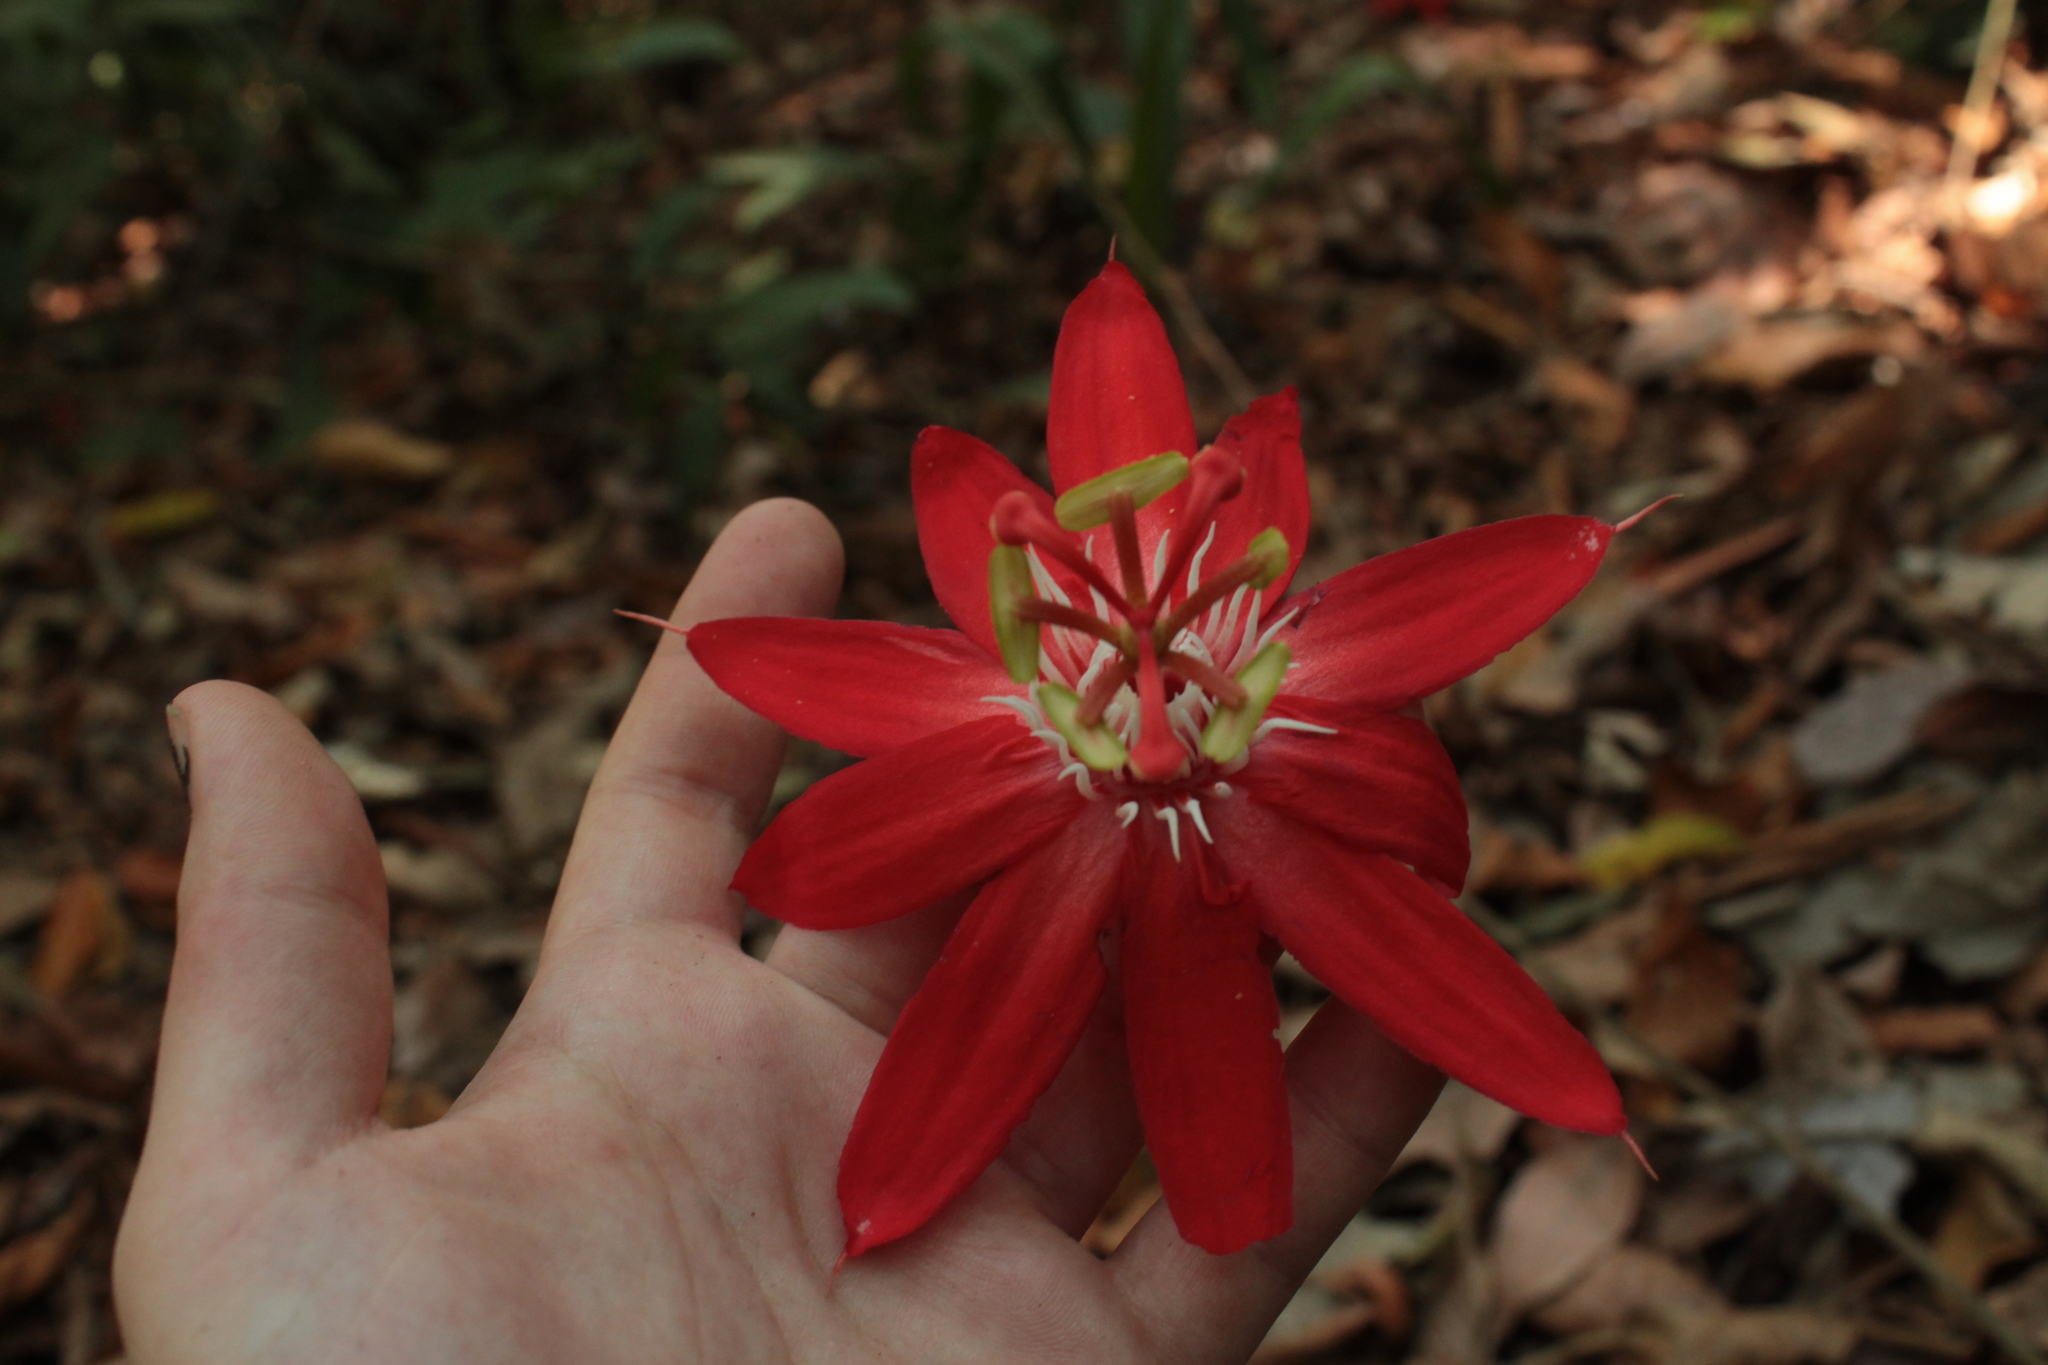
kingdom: Plantae
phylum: Tracheophyta
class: Magnoliopsida
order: Malpighiales
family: Passifloraceae
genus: Passiflora
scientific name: Passiflora vitifolia
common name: Perfumed passionflower
